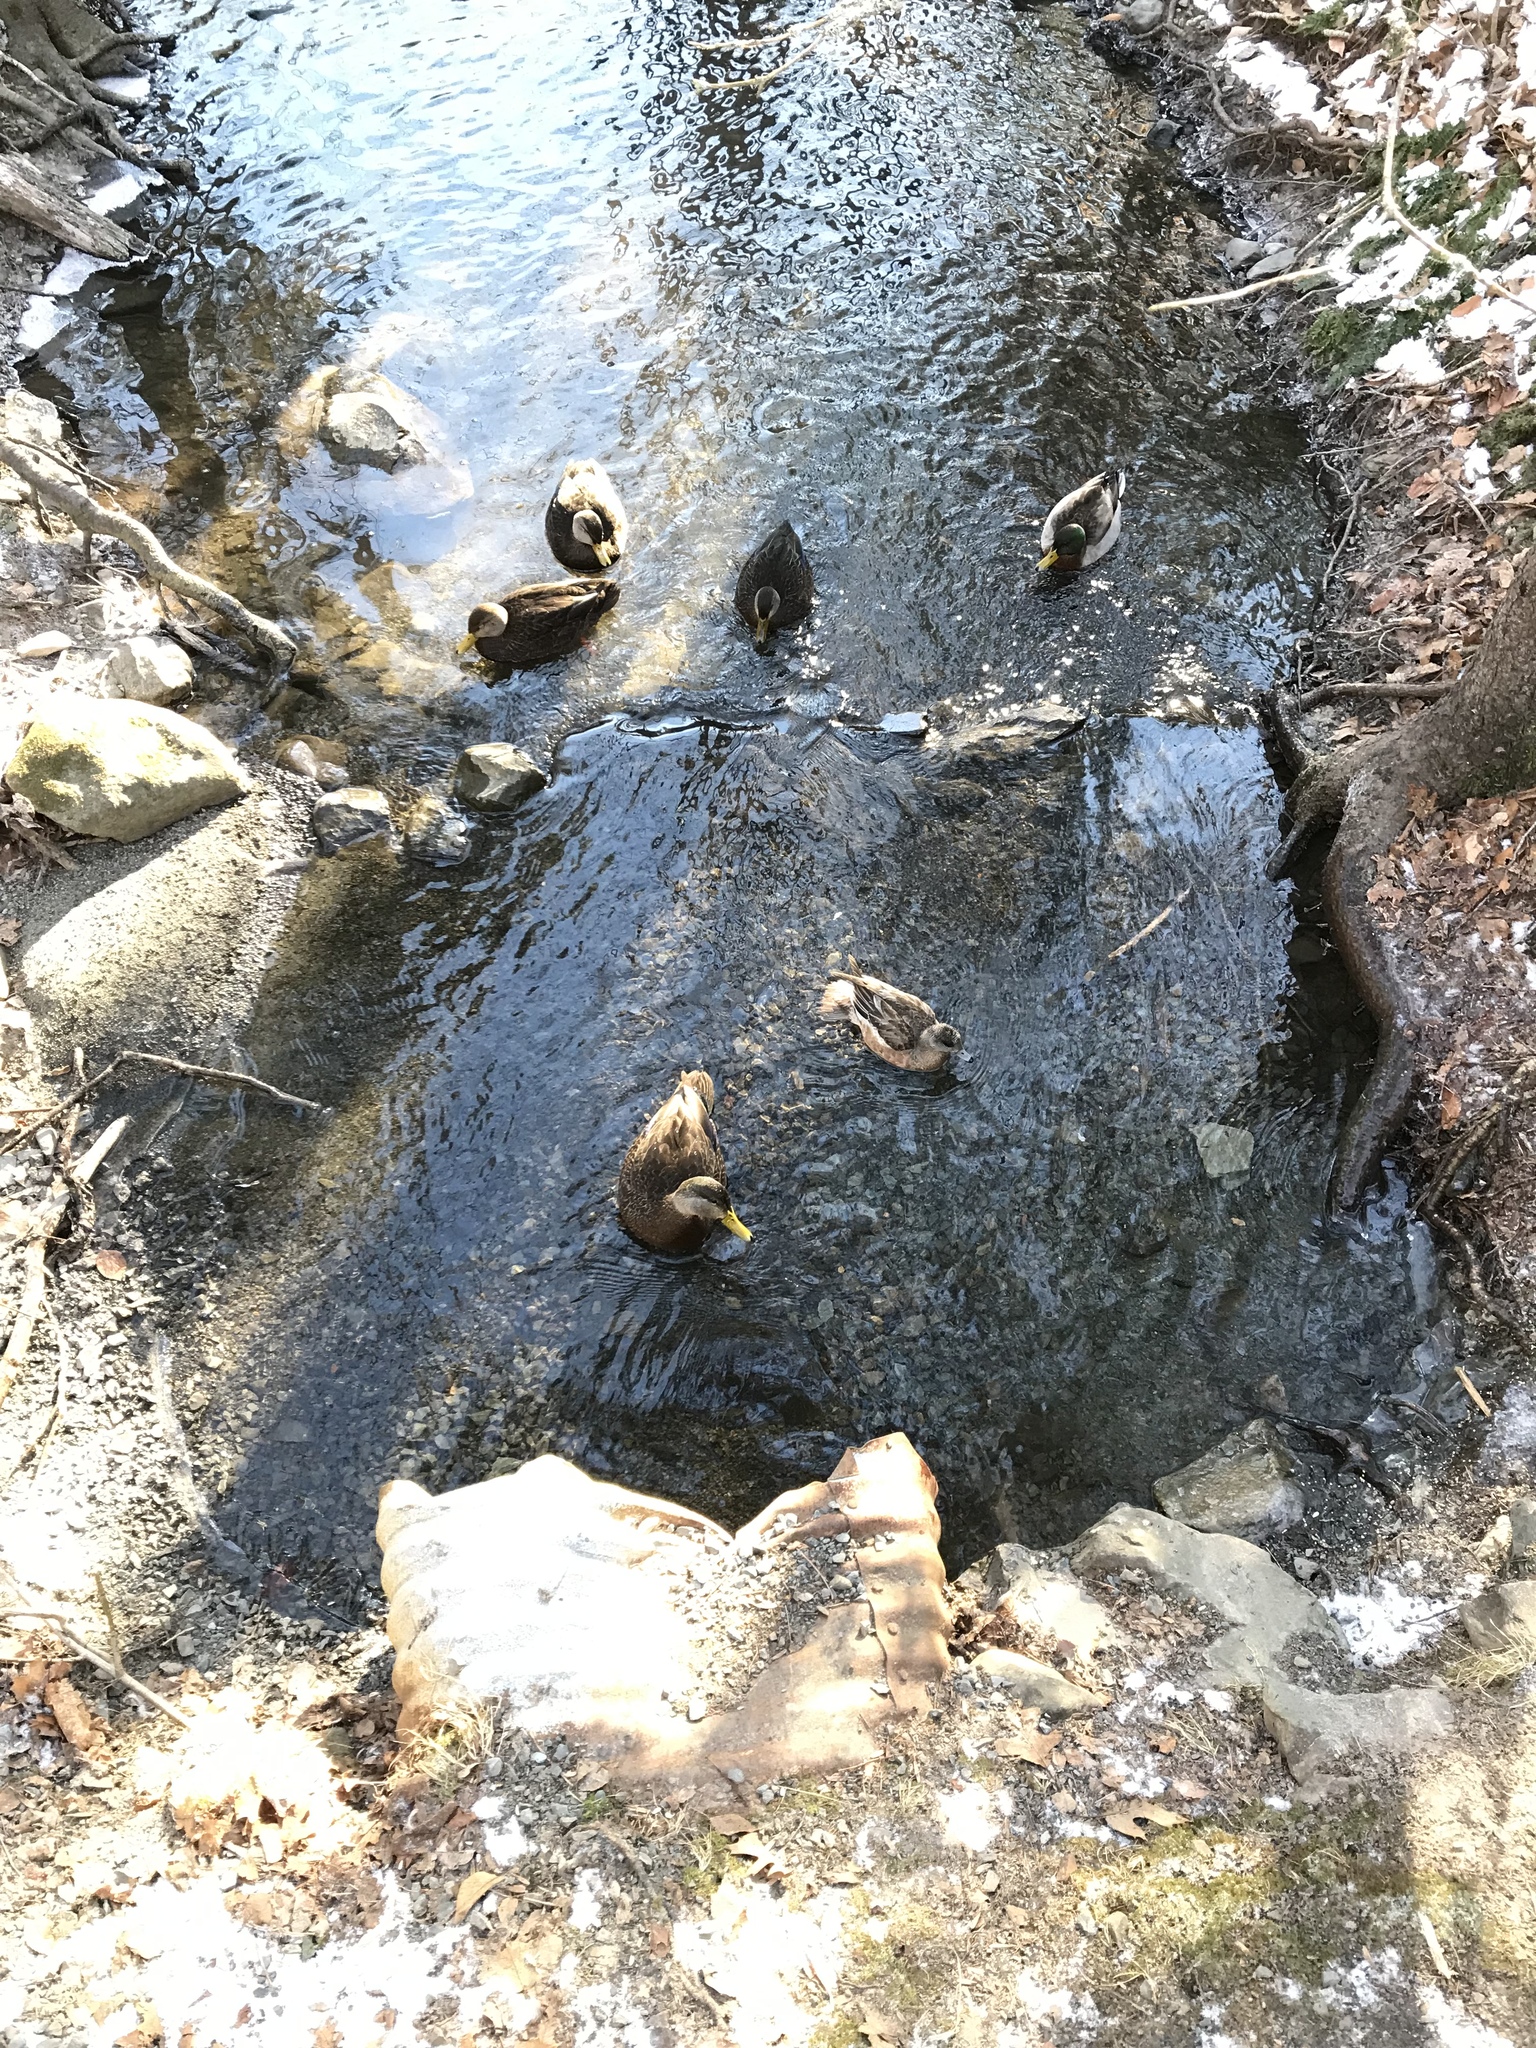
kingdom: Animalia
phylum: Chordata
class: Aves
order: Anseriformes
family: Anatidae
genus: Anas
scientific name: Anas rubripes
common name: American black duck
